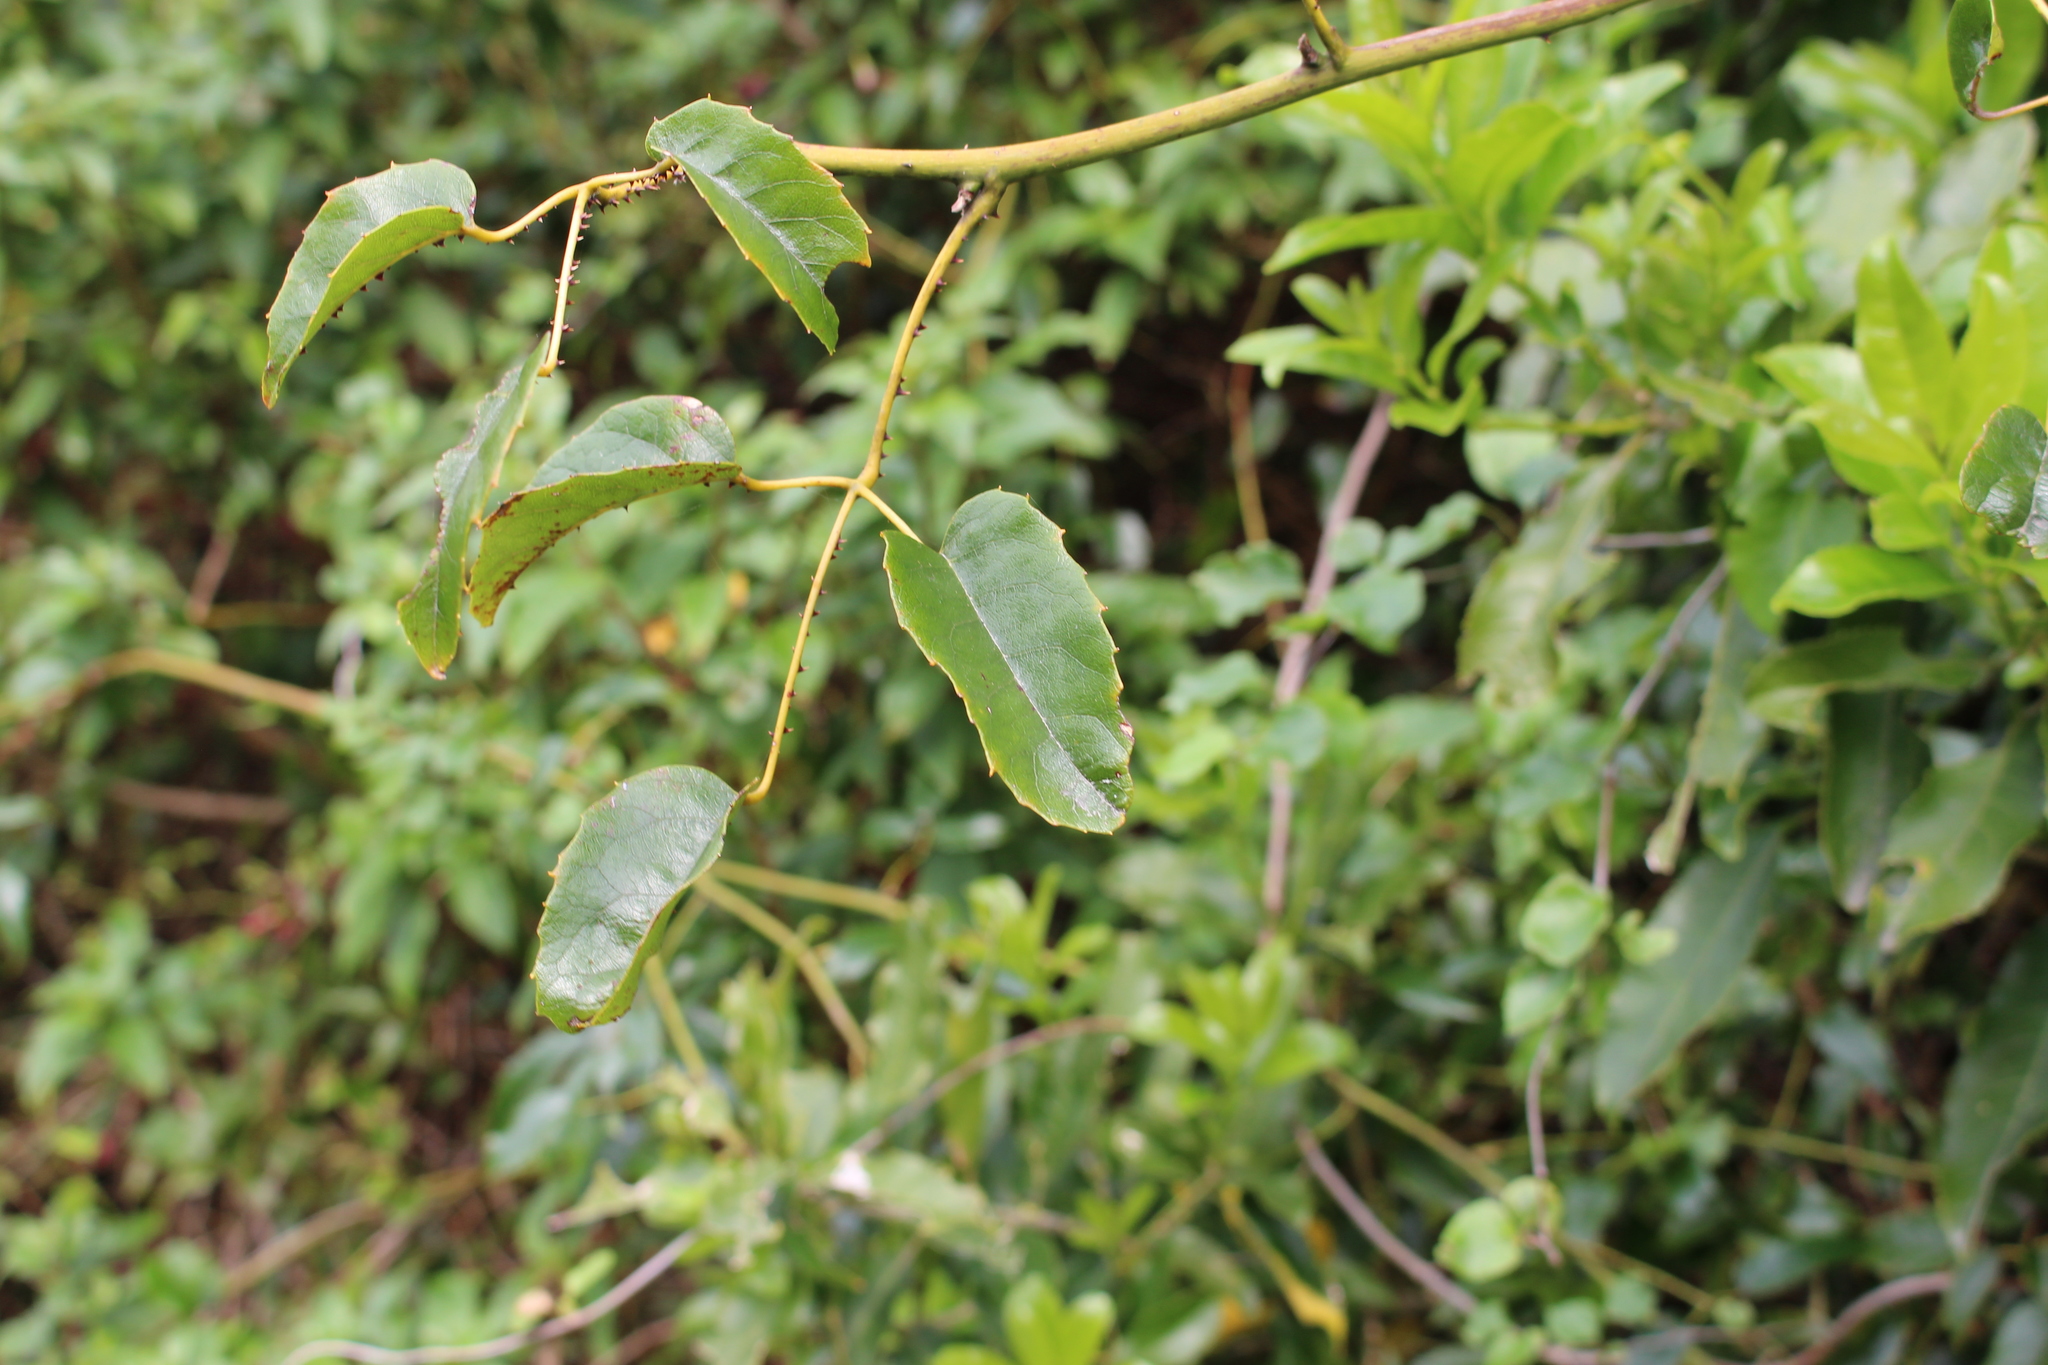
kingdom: Plantae
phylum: Tracheophyta
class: Magnoliopsida
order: Rosales
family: Rosaceae
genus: Rubus
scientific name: Rubus cissoides
